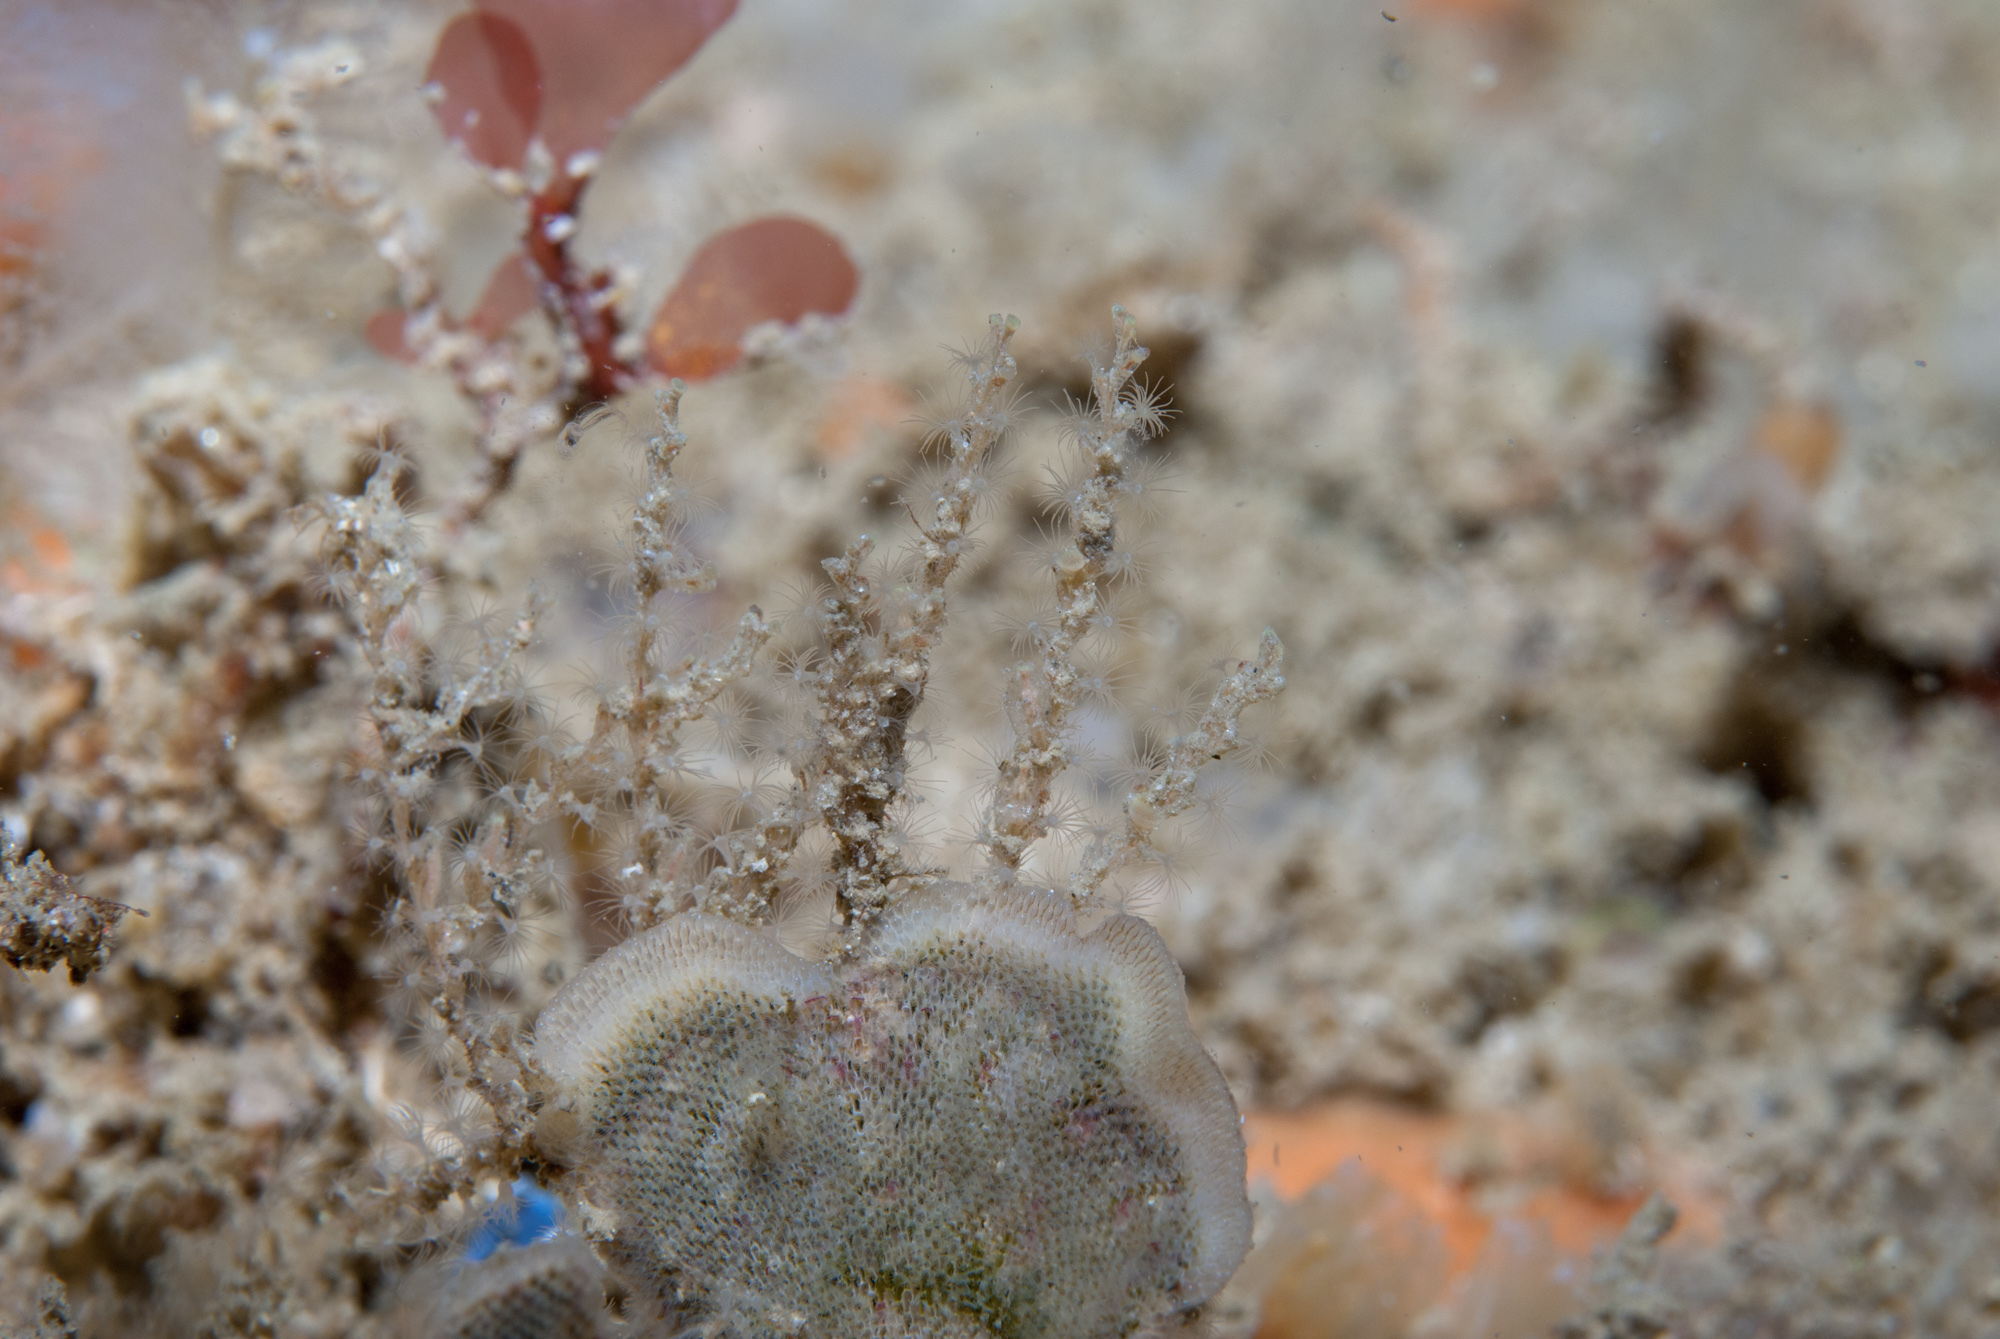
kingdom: Animalia
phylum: Cnidaria
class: Hydrozoa
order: Leptothecata
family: Sertularellidae
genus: Sertularella
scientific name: Sertularella fusiformis
